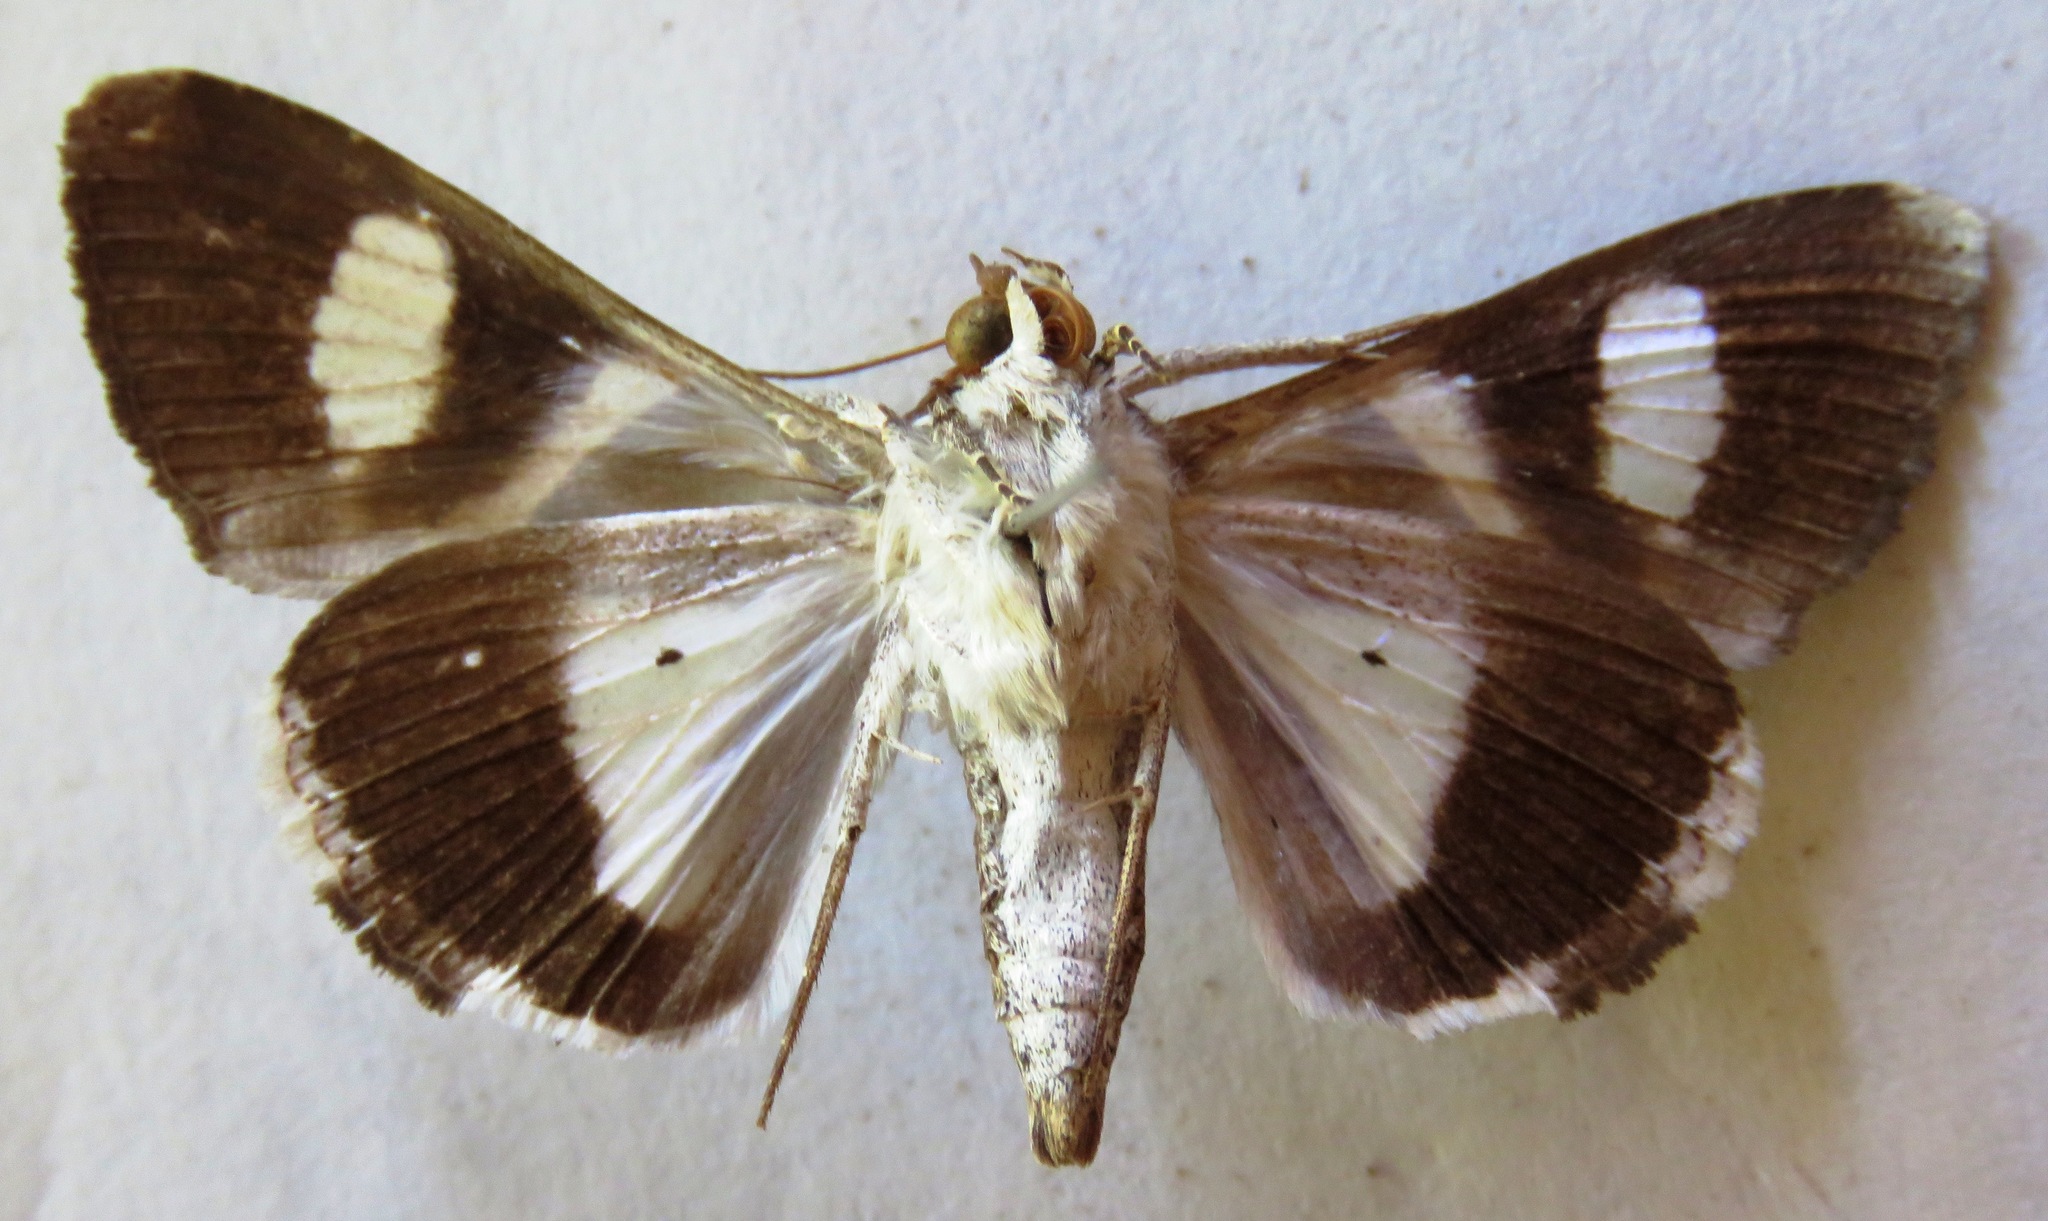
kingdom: Animalia
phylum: Arthropoda
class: Insecta
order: Lepidoptera
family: Erebidae
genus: Melipotis
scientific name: Melipotis fasciolaris
